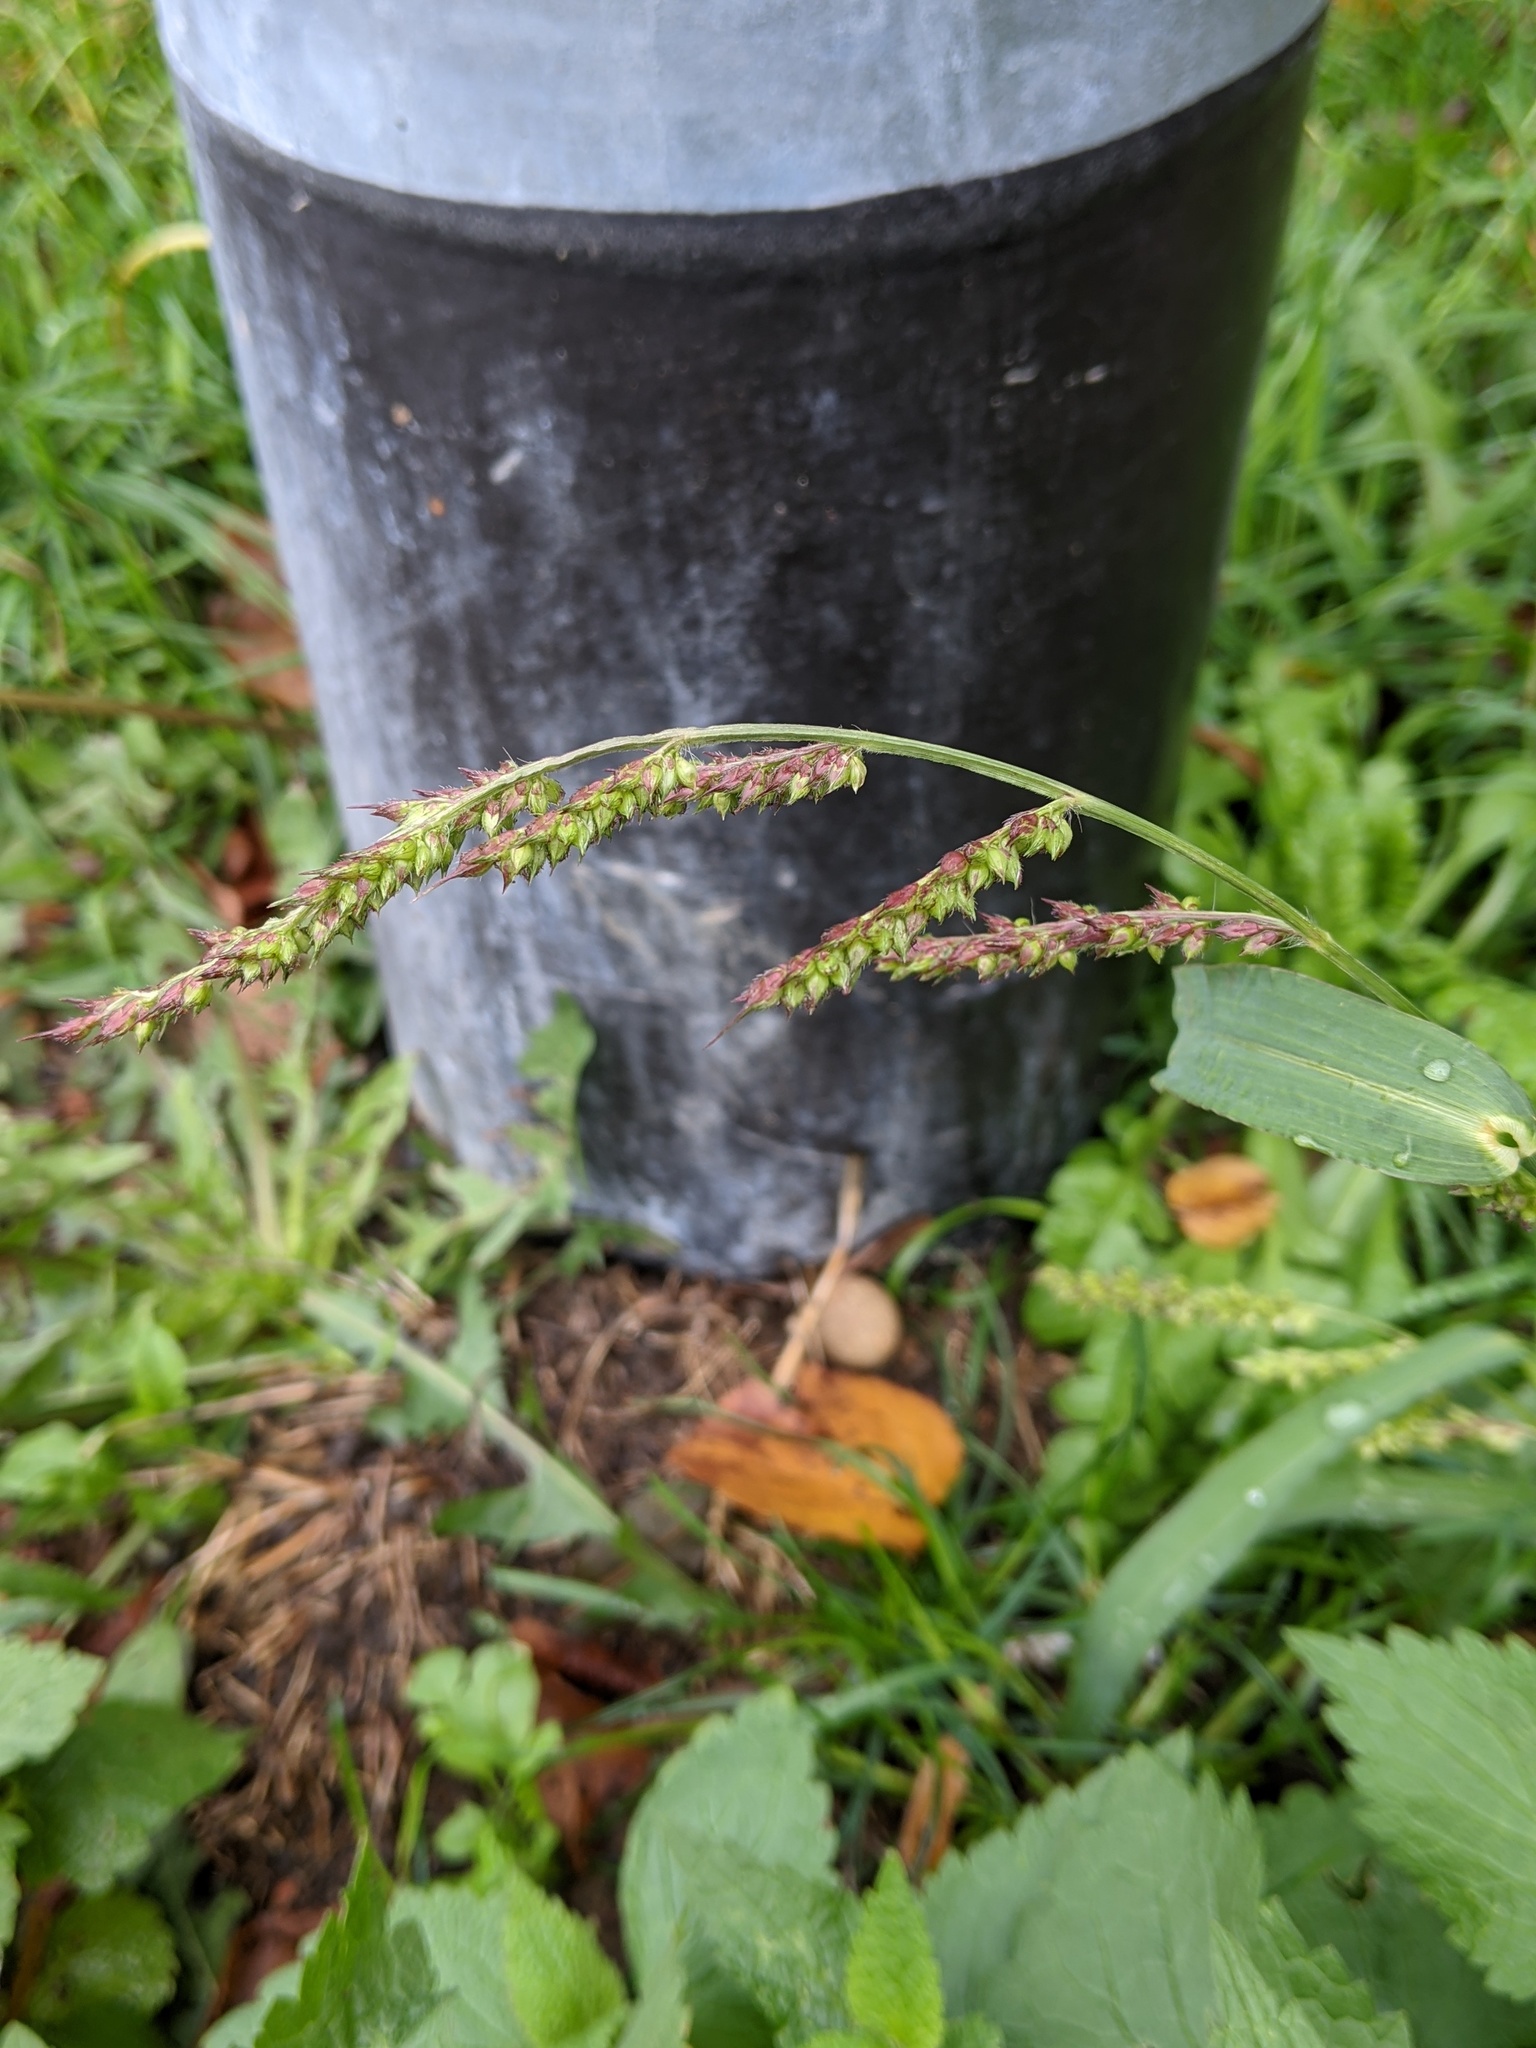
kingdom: Plantae
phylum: Tracheophyta
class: Liliopsida
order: Poales
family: Poaceae
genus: Echinochloa
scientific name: Echinochloa crus-galli
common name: Cockspur
